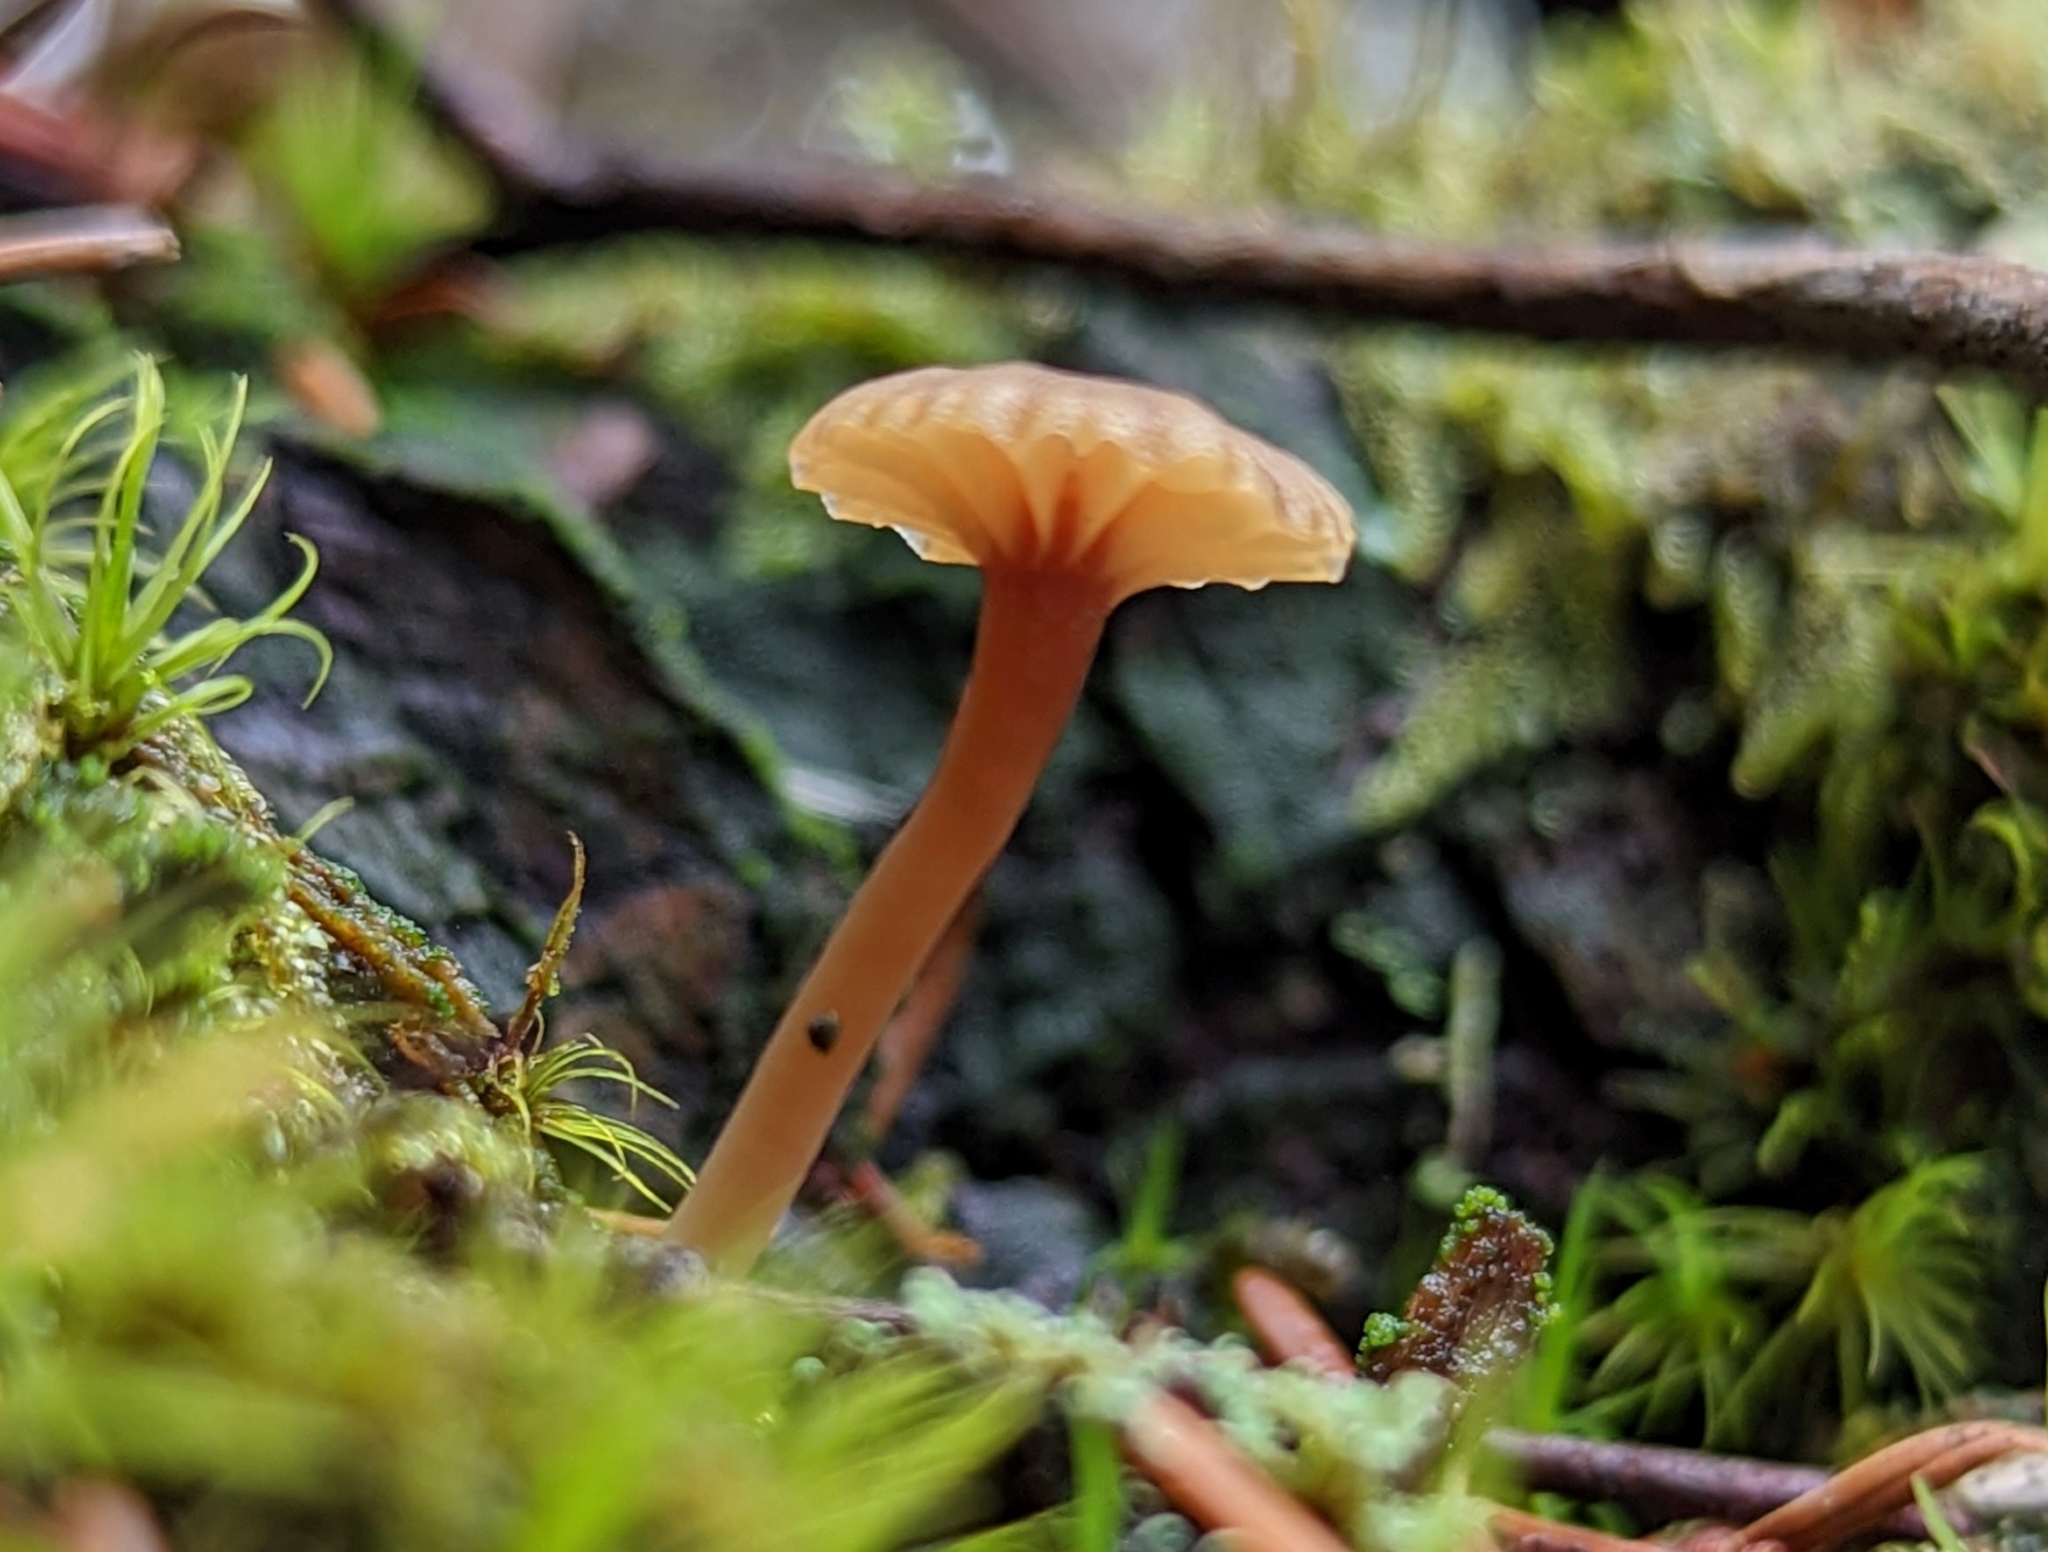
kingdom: Fungi
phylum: Basidiomycota
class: Agaricomycetes
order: Agaricales
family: Hygrophoraceae
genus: Lichenomphalia
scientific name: Lichenomphalia
